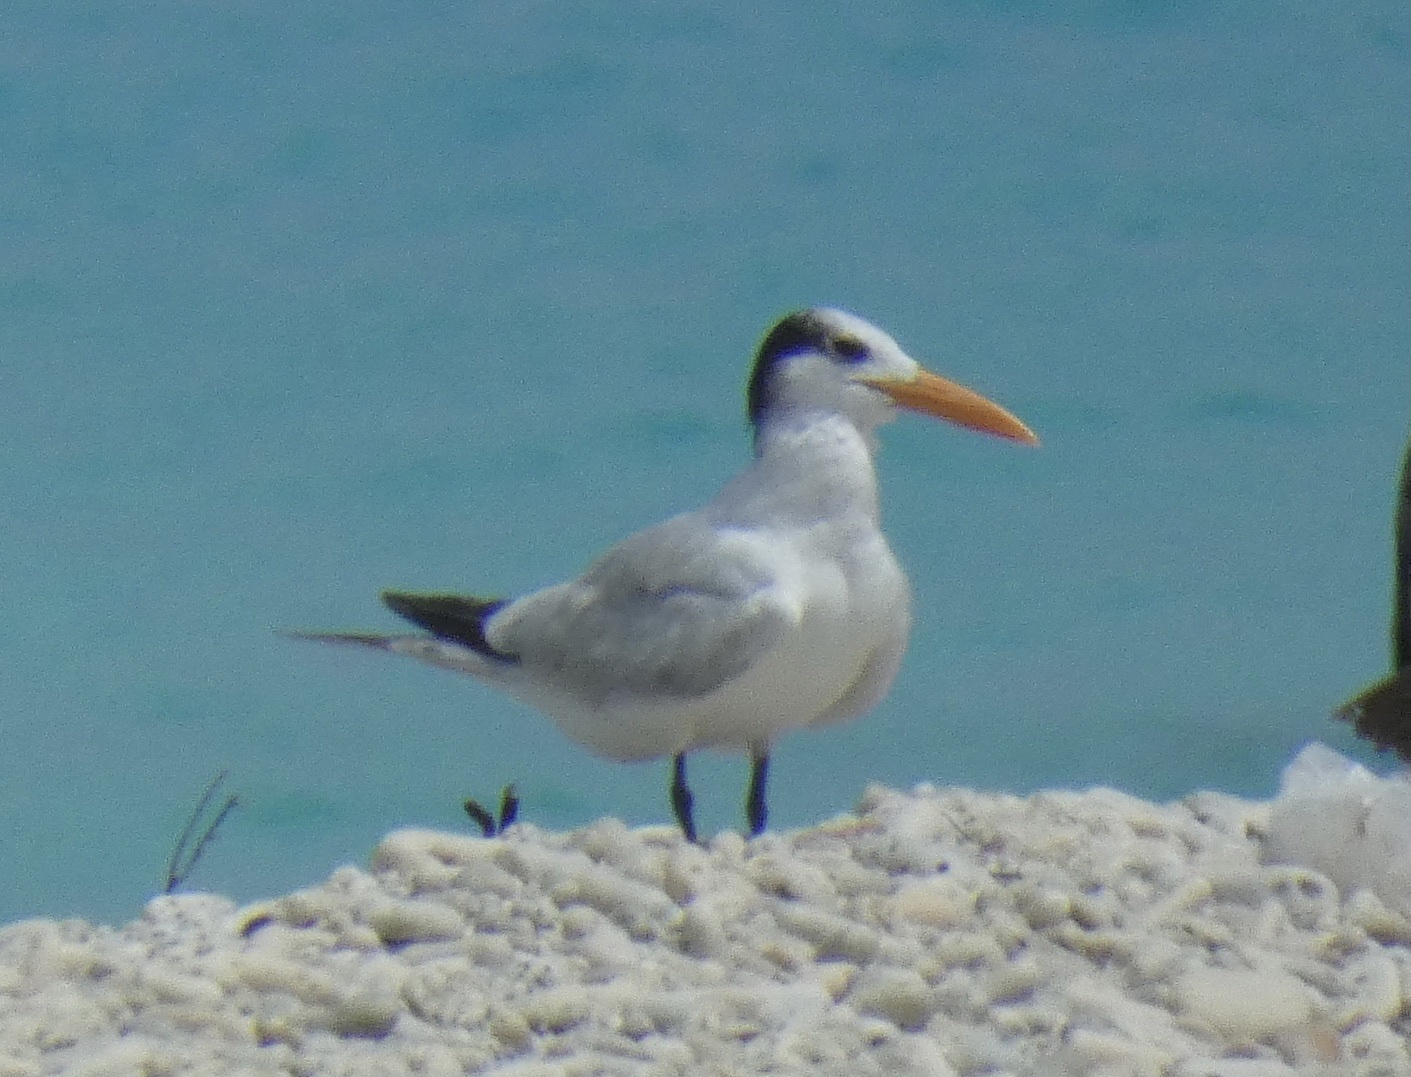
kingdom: Animalia
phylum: Chordata
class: Aves
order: Charadriiformes
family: Laridae
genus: Thalasseus
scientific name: Thalasseus maximus
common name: Royal tern
